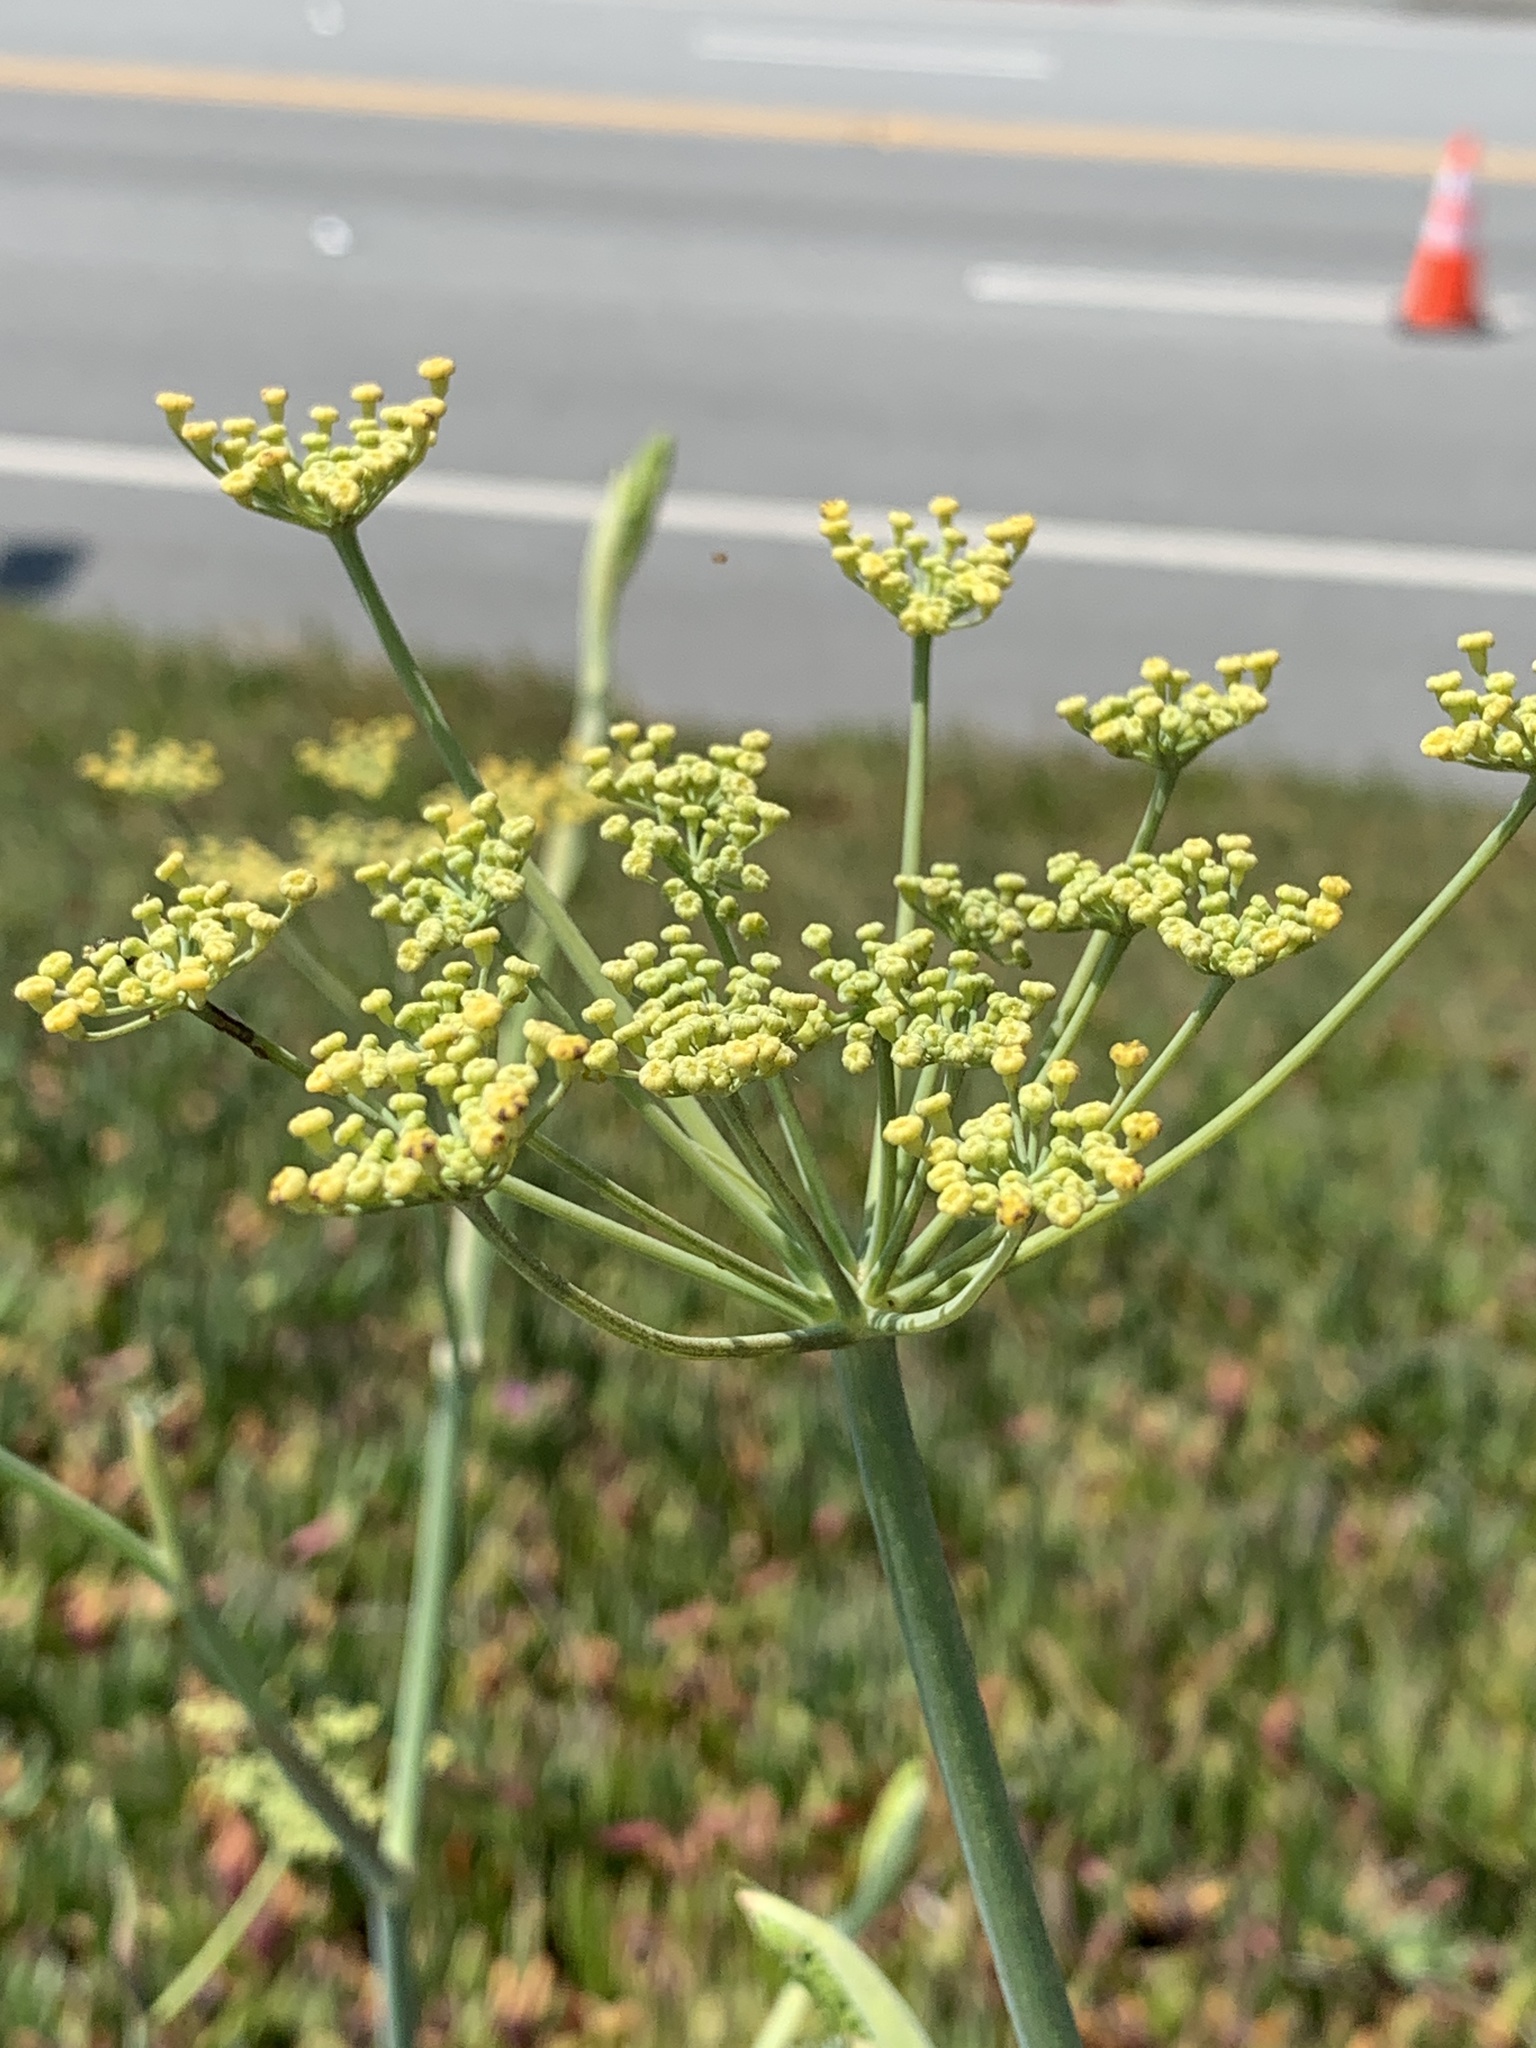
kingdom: Plantae
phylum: Tracheophyta
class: Magnoliopsida
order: Apiales
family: Apiaceae
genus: Foeniculum
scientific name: Foeniculum vulgare
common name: Fennel
